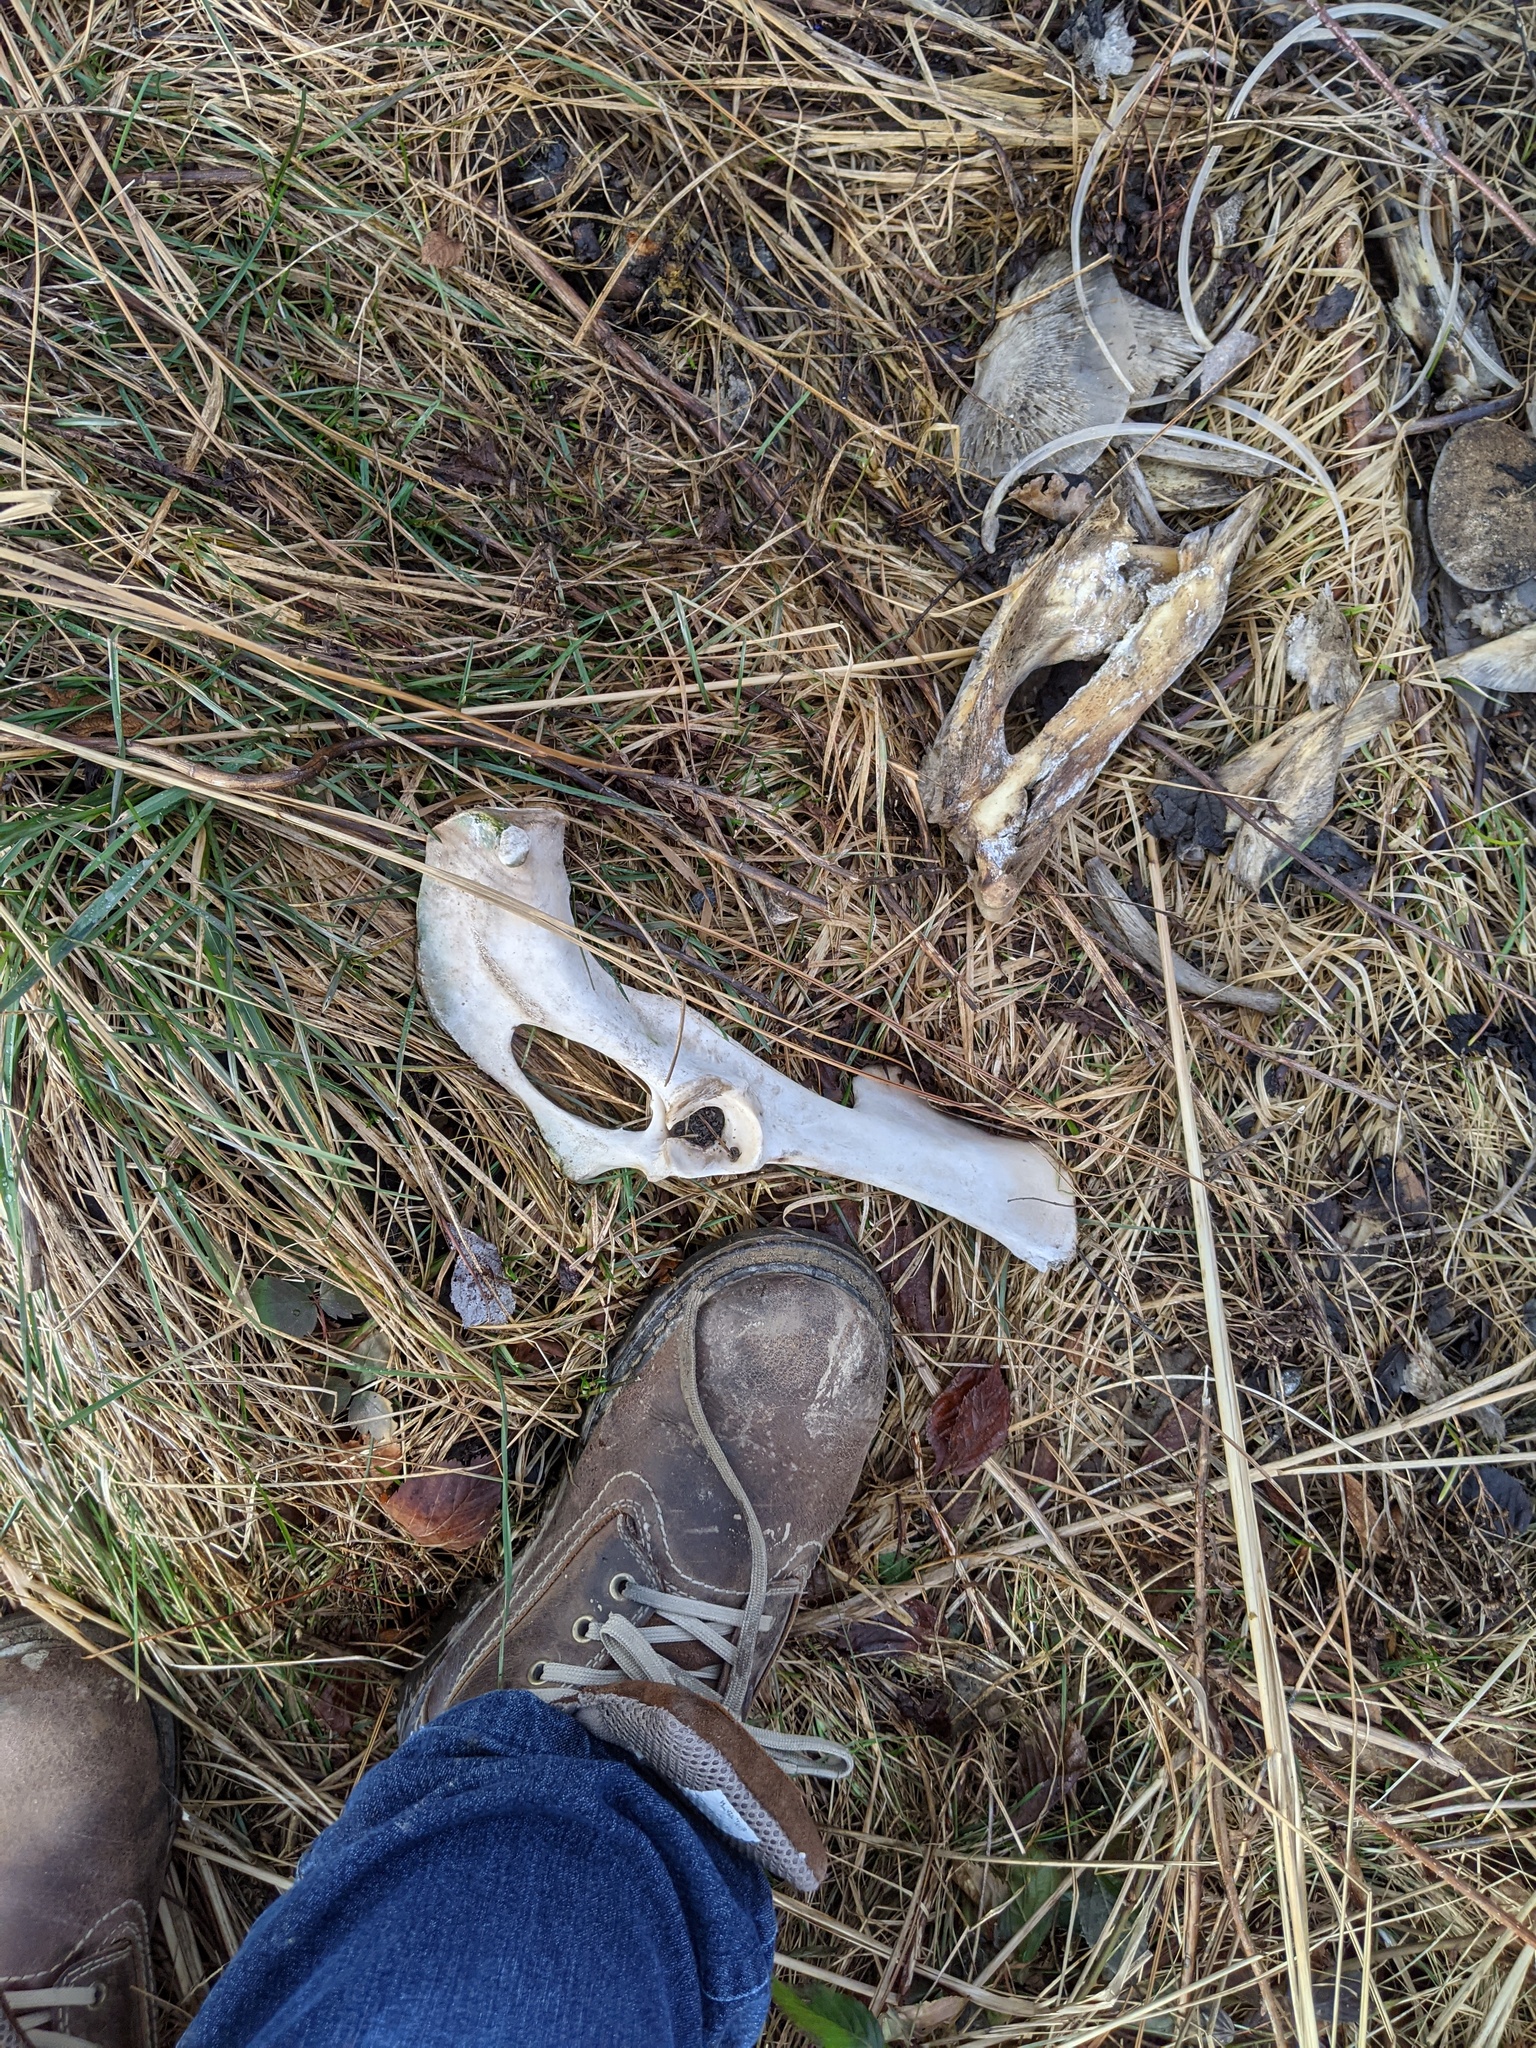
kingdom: Animalia
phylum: Chordata
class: Mammalia
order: Artiodactyla
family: Cervidae
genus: Odocoileus
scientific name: Odocoileus virginianus
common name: White-tailed deer
